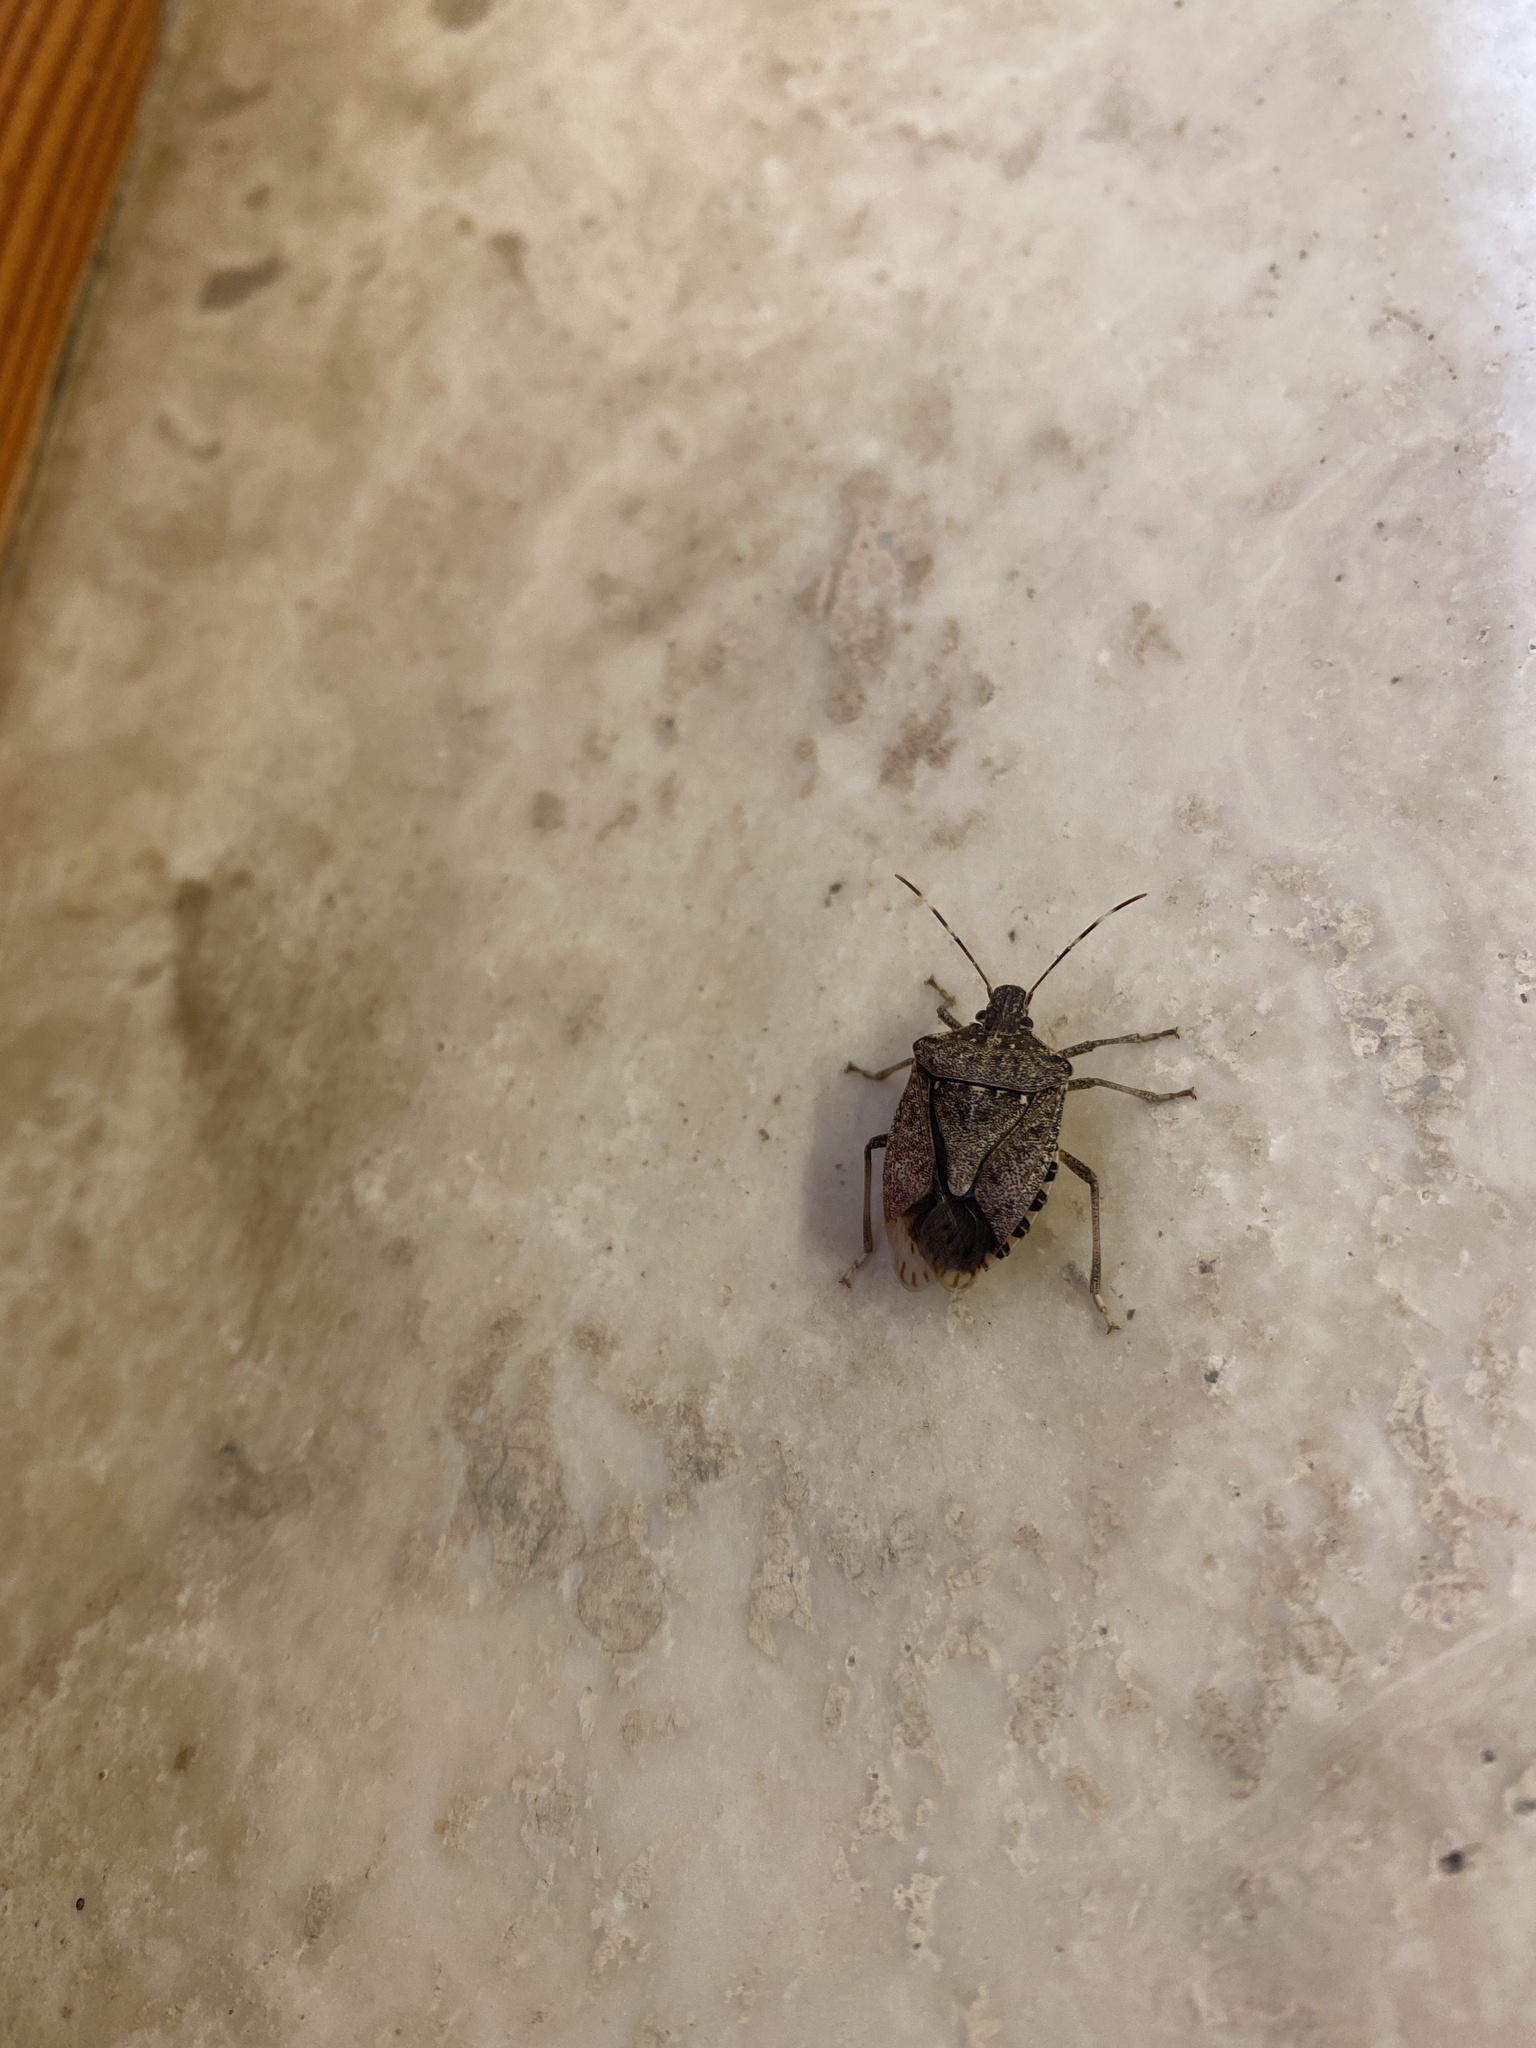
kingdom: Animalia
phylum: Arthropoda
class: Insecta
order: Hemiptera
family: Pentatomidae
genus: Halyomorpha
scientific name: Halyomorpha halys
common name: Brown marmorated stink bug
